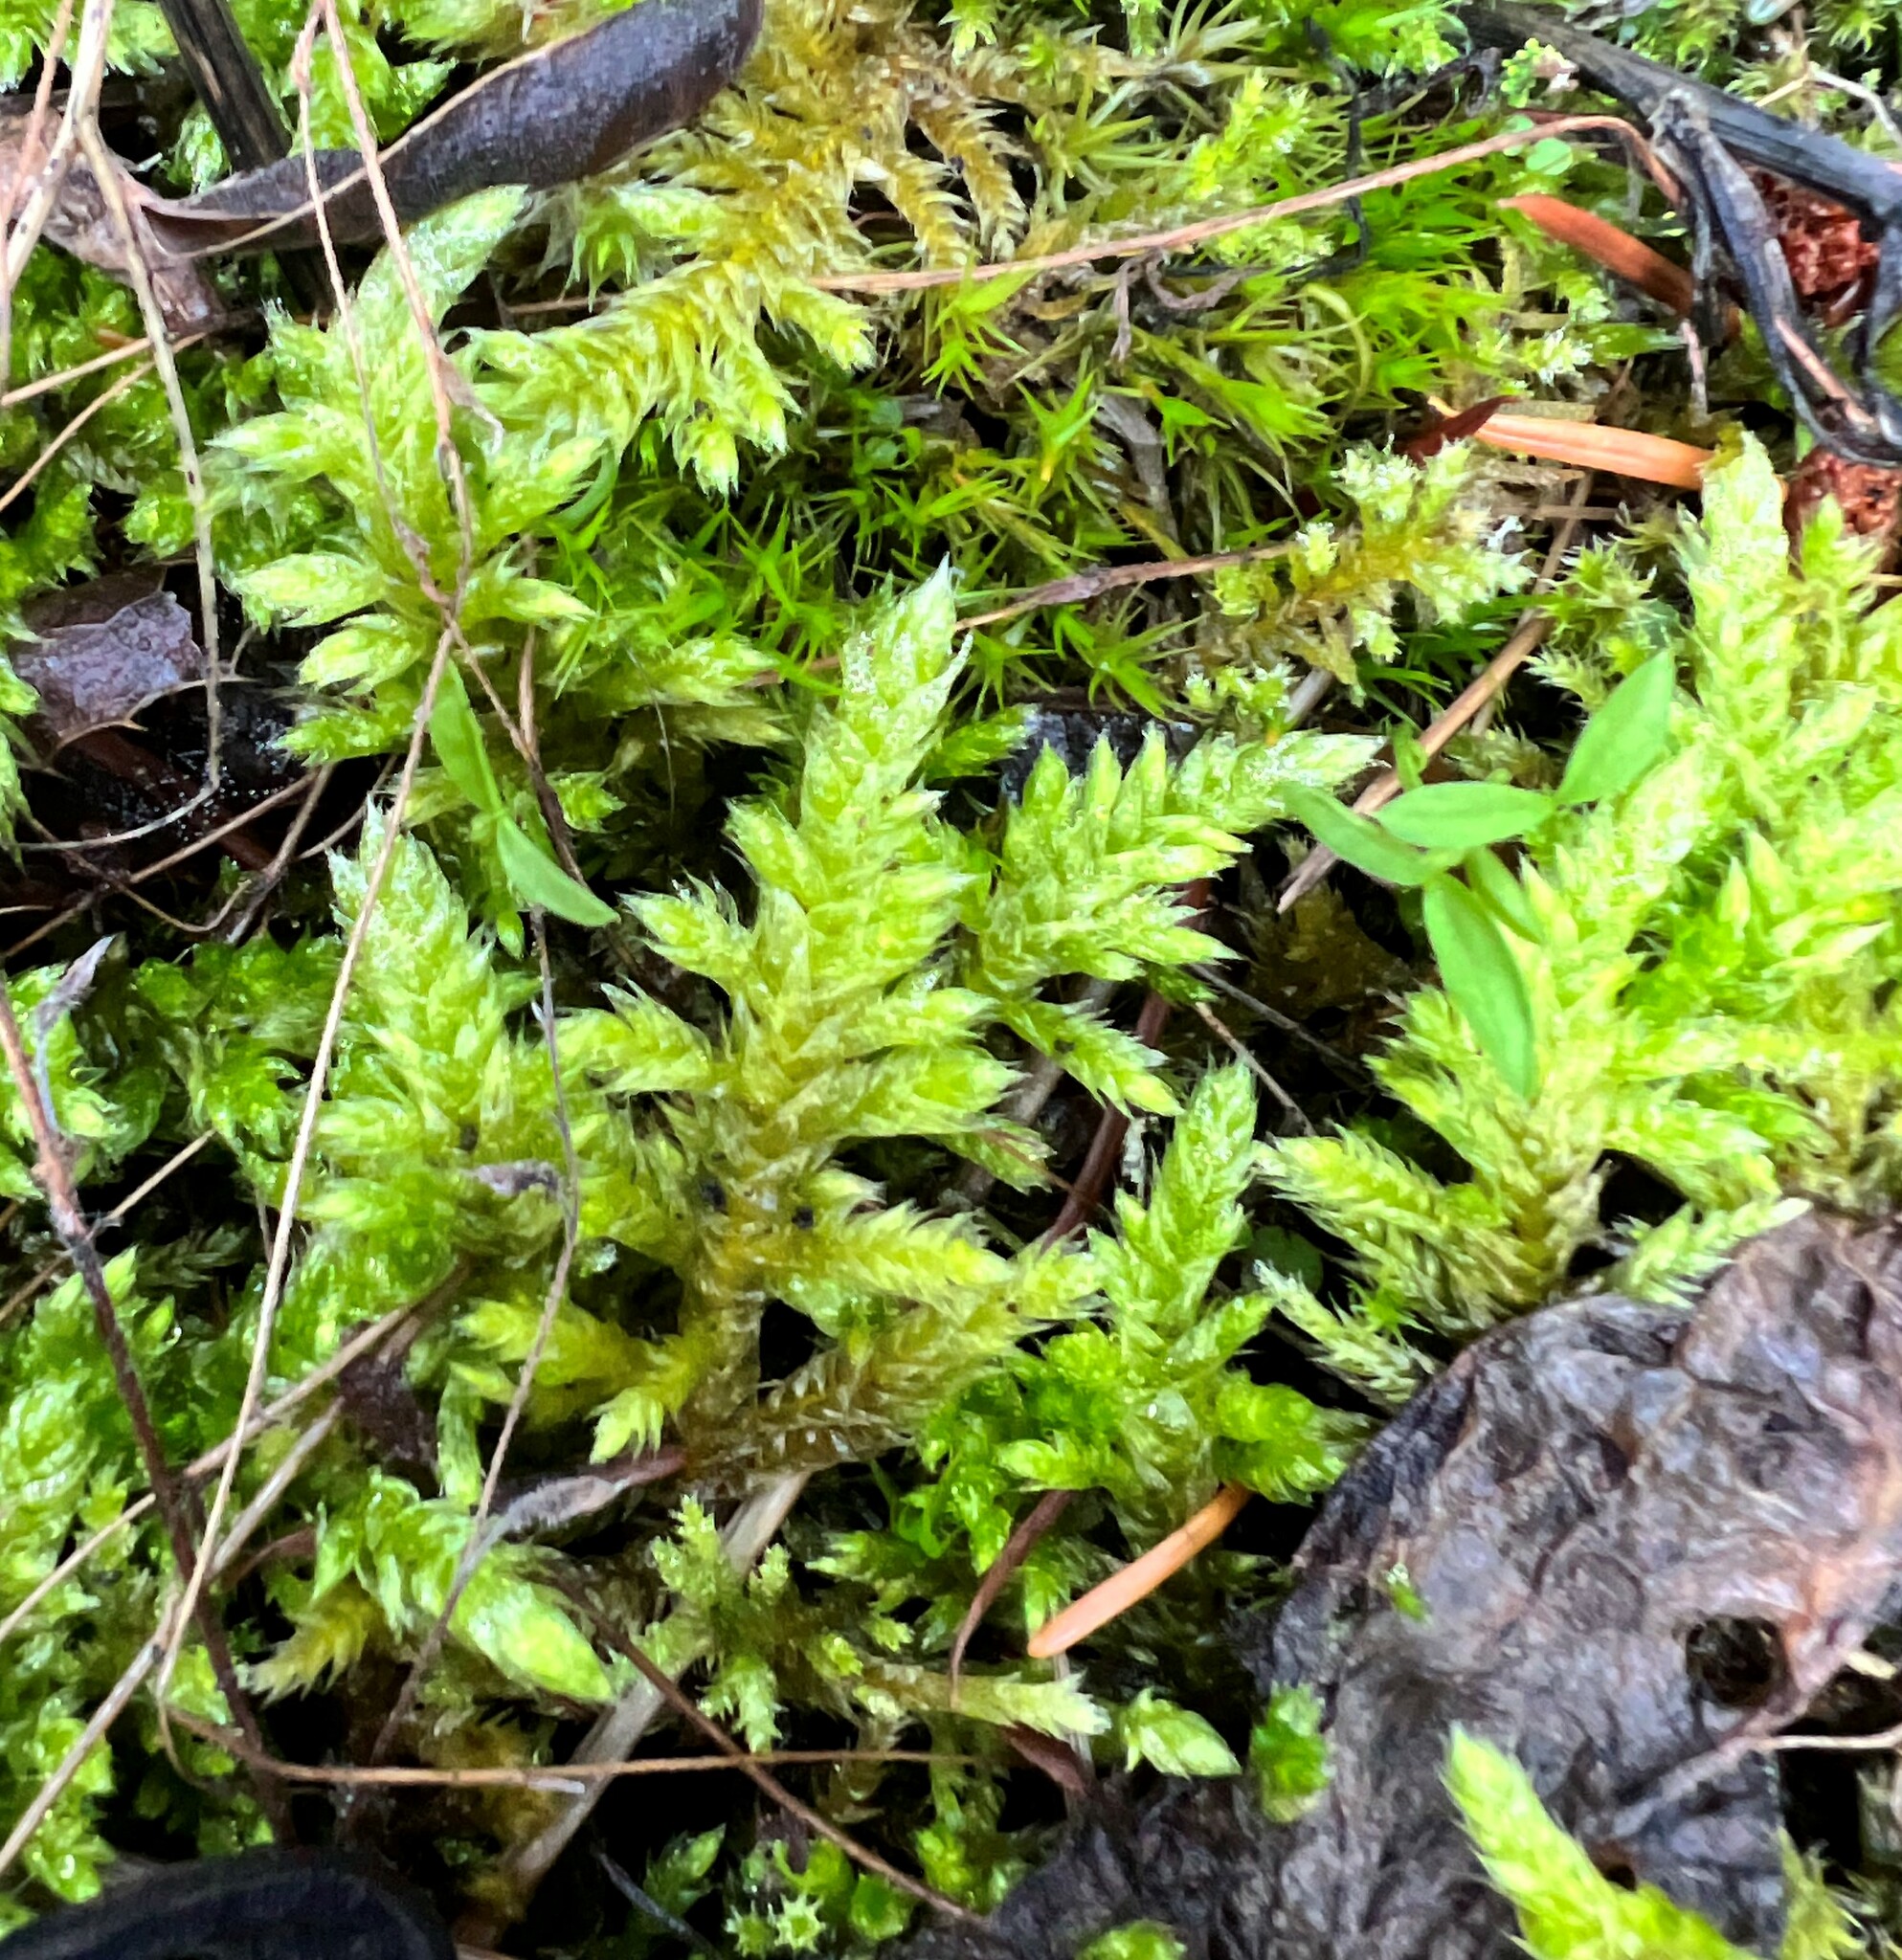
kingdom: Plantae
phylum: Bryophyta
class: Bryopsida
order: Hypnales
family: Brachytheciaceae
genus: Homalothecium
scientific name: Homalothecium megaptilum
